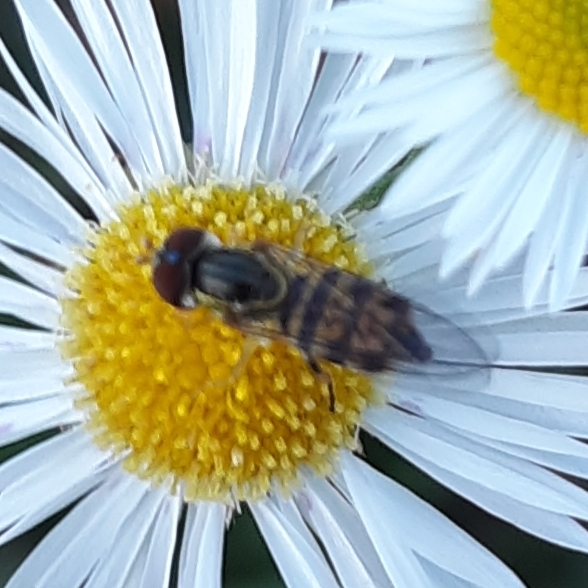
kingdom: Animalia
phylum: Arthropoda
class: Insecta
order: Diptera
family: Syrphidae
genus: Toxomerus
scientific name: Toxomerus geminatus
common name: Eastern calligrapher
